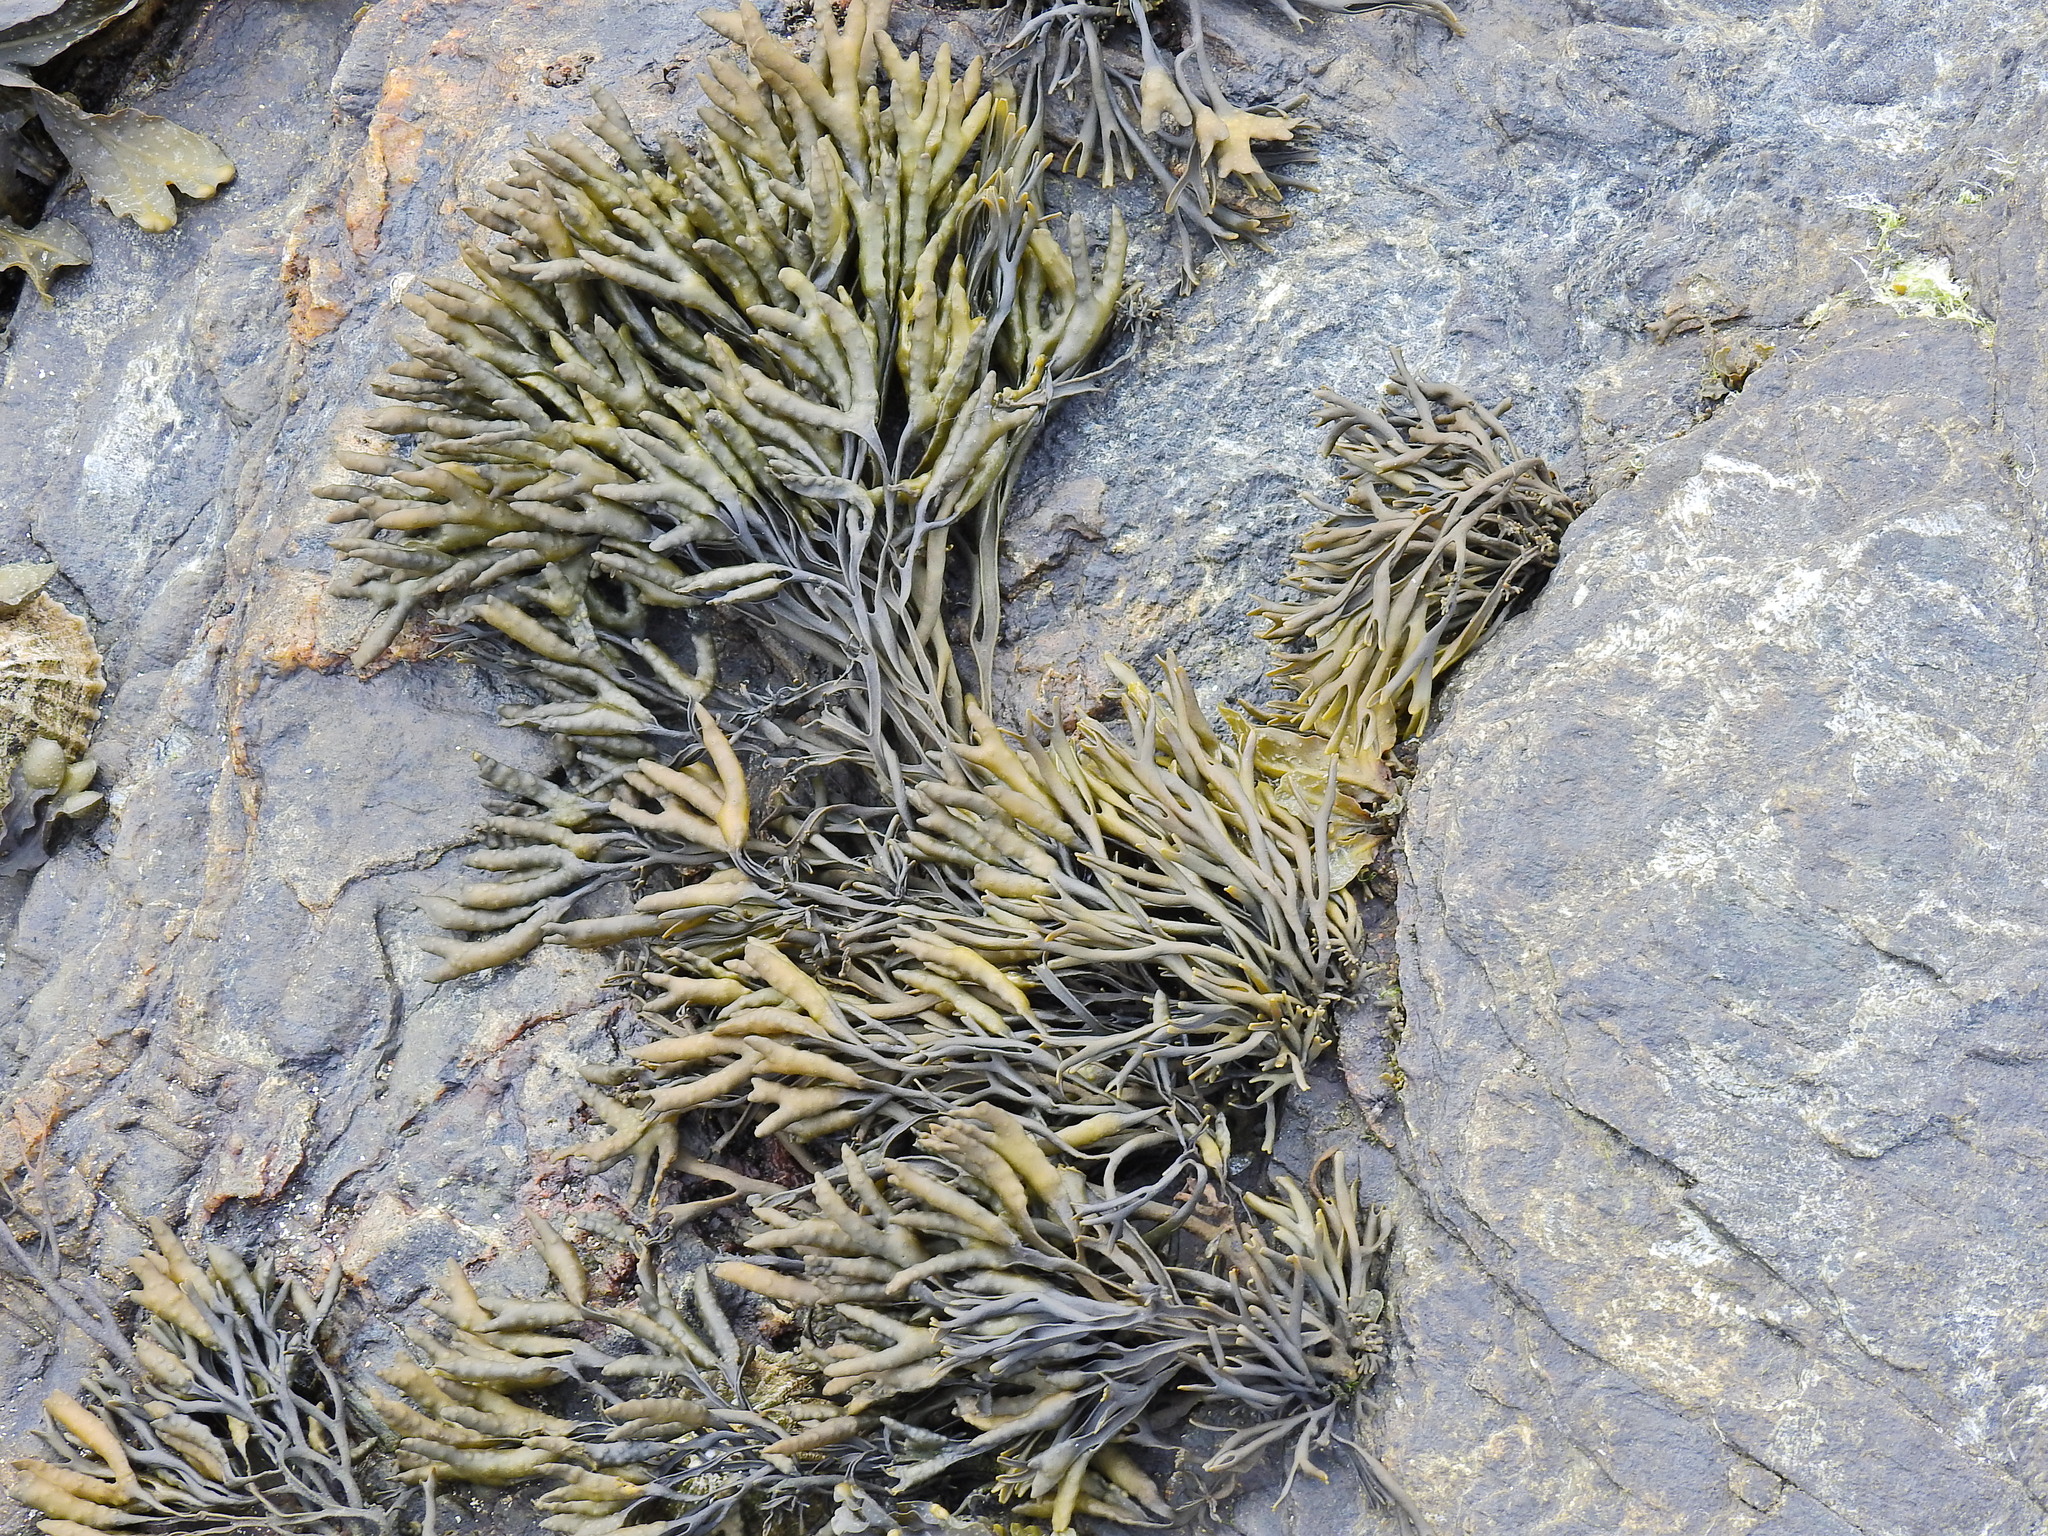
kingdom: Chromista
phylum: Ochrophyta
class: Phaeophyceae
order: Fucales
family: Fucaceae
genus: Pelvetia
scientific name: Pelvetia canaliculata
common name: Channelled wrack
